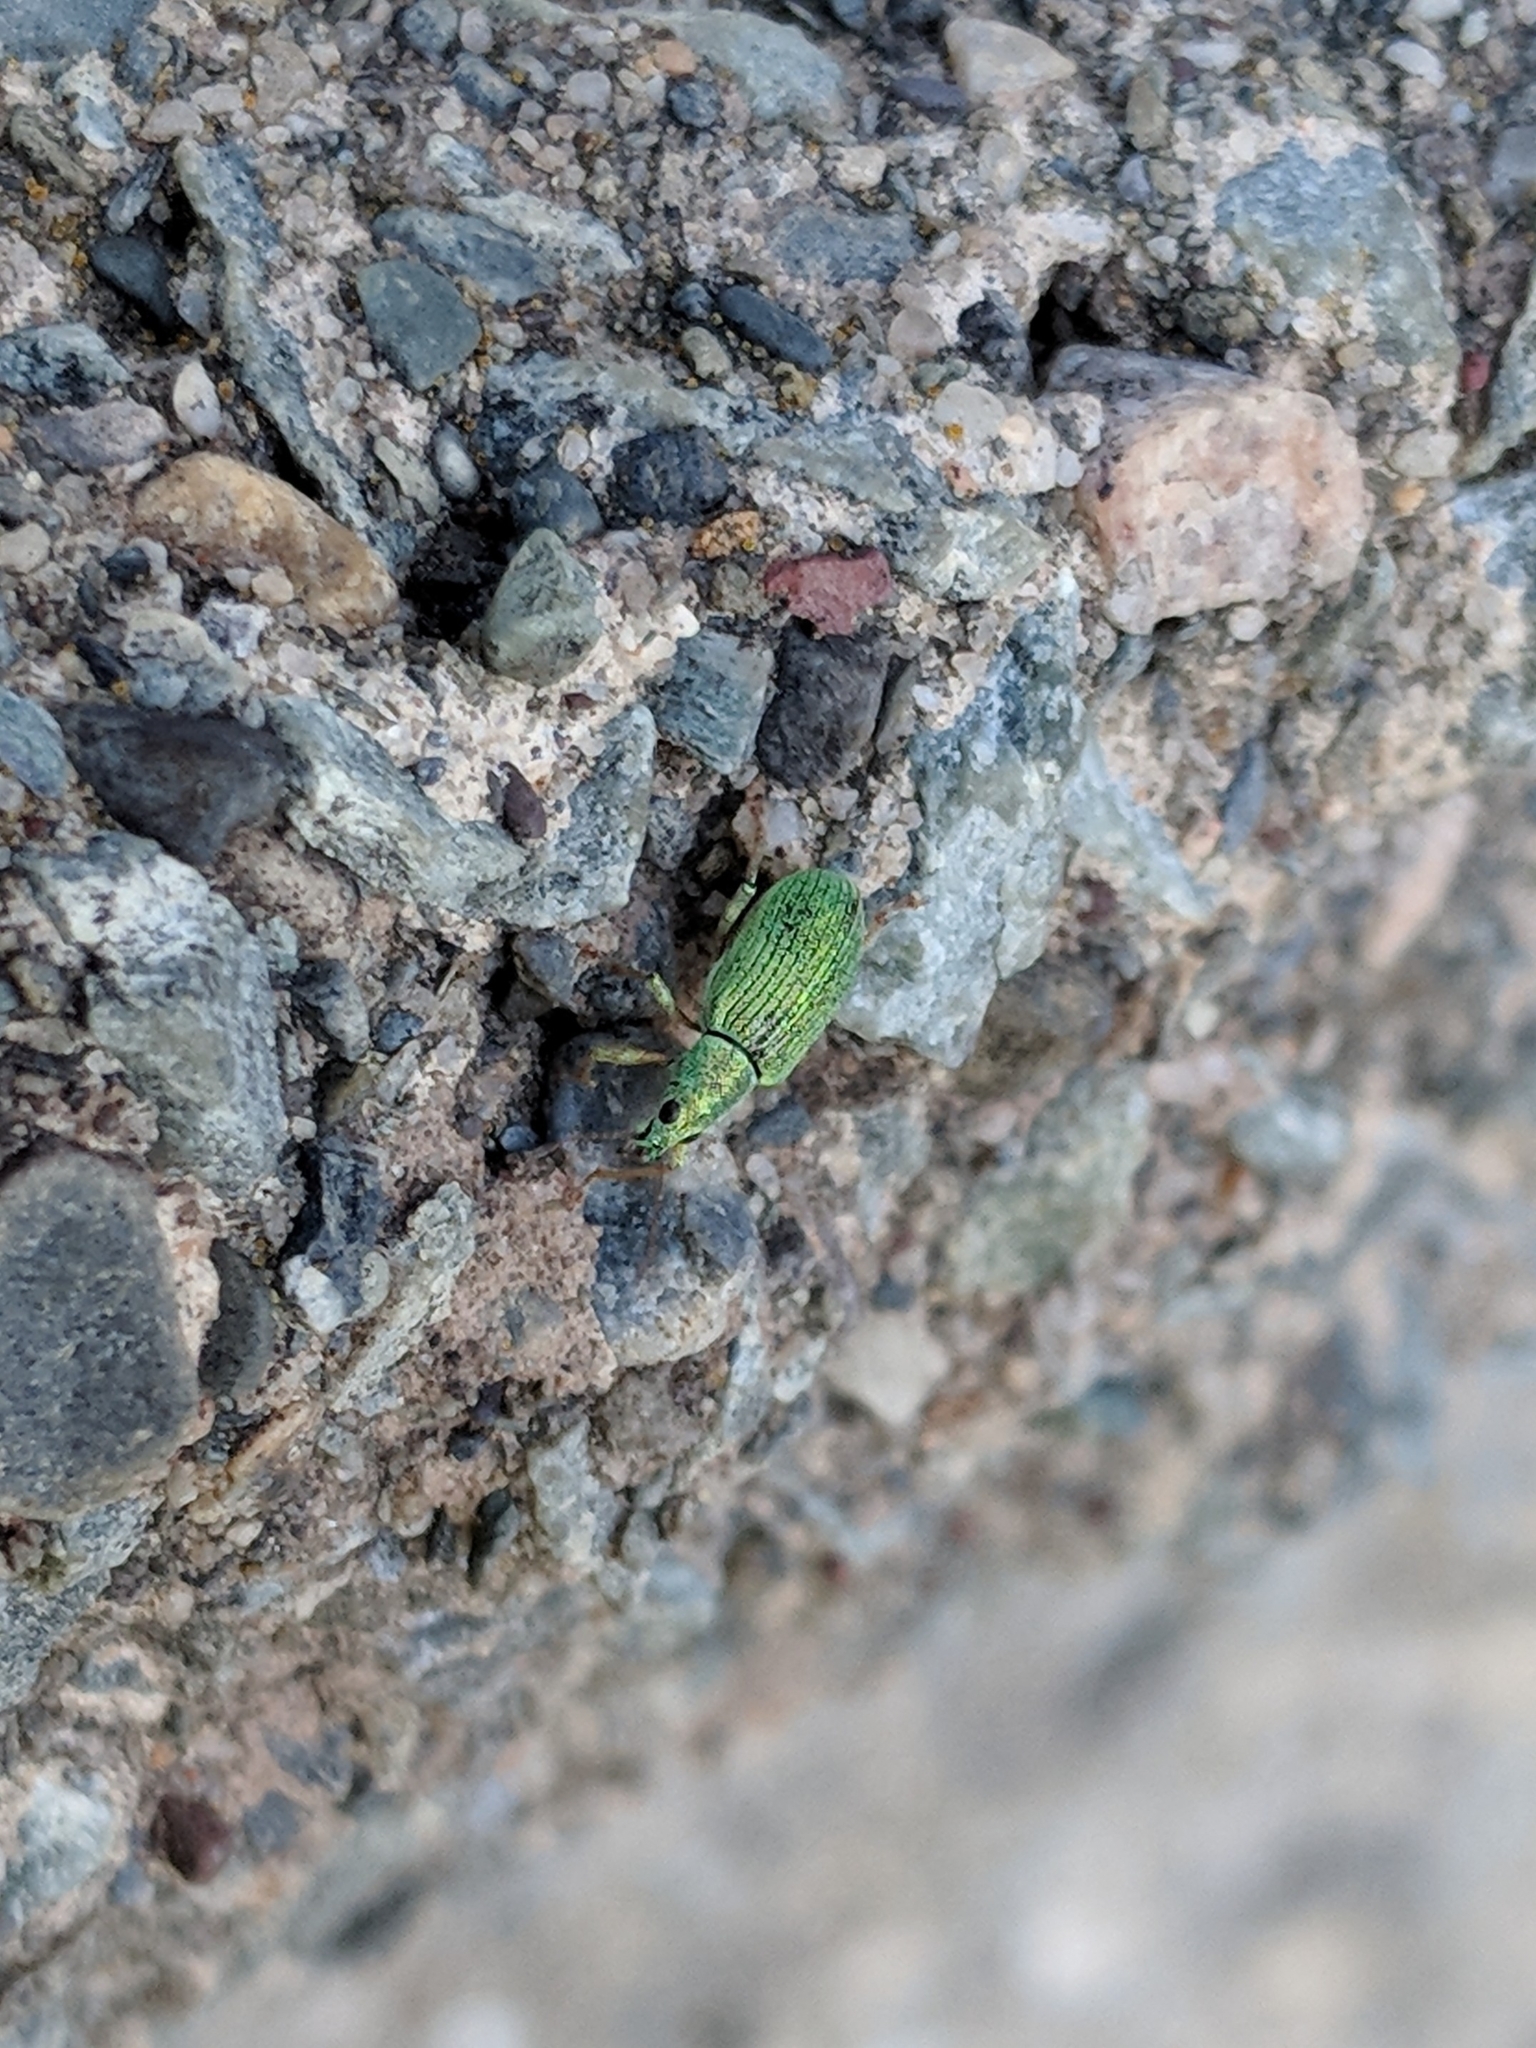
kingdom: Animalia
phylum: Arthropoda
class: Insecta
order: Coleoptera
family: Curculionidae
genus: Polydrusus
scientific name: Polydrusus formosus
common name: Weevil
